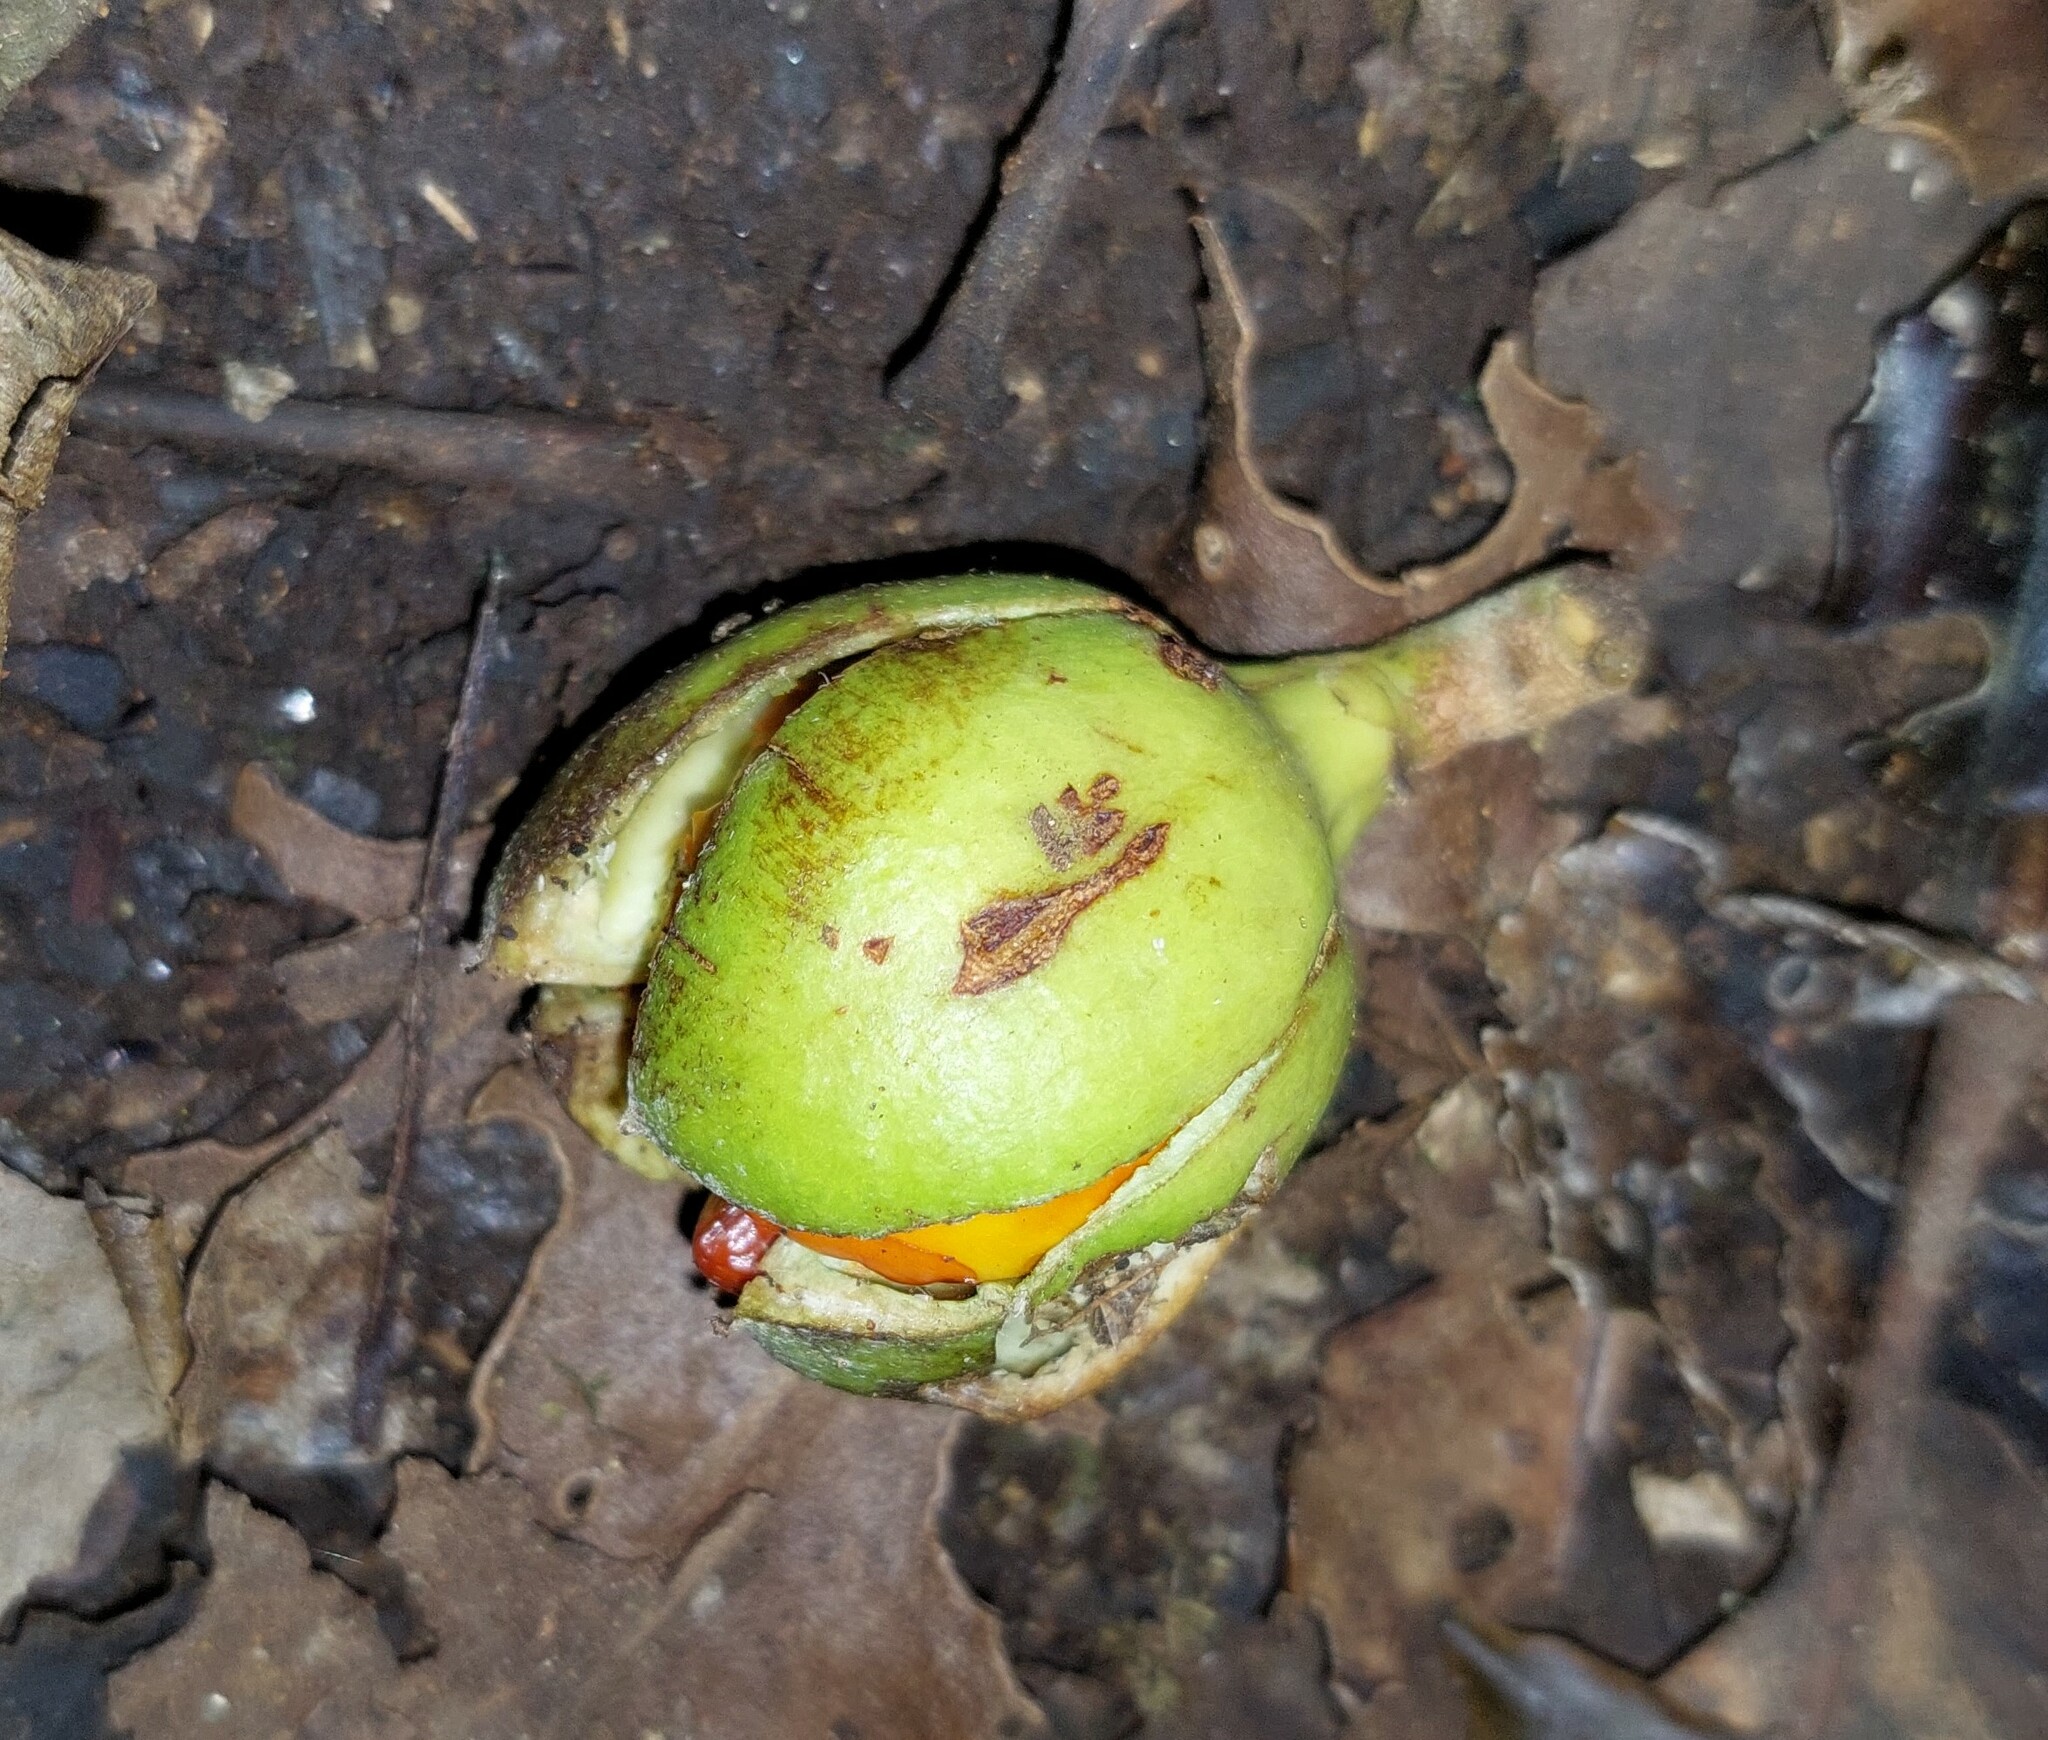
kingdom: Plantae
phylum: Tracheophyta
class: Magnoliopsida
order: Sapindales
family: Meliaceae
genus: Didymocheton
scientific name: Didymocheton spectabilis
